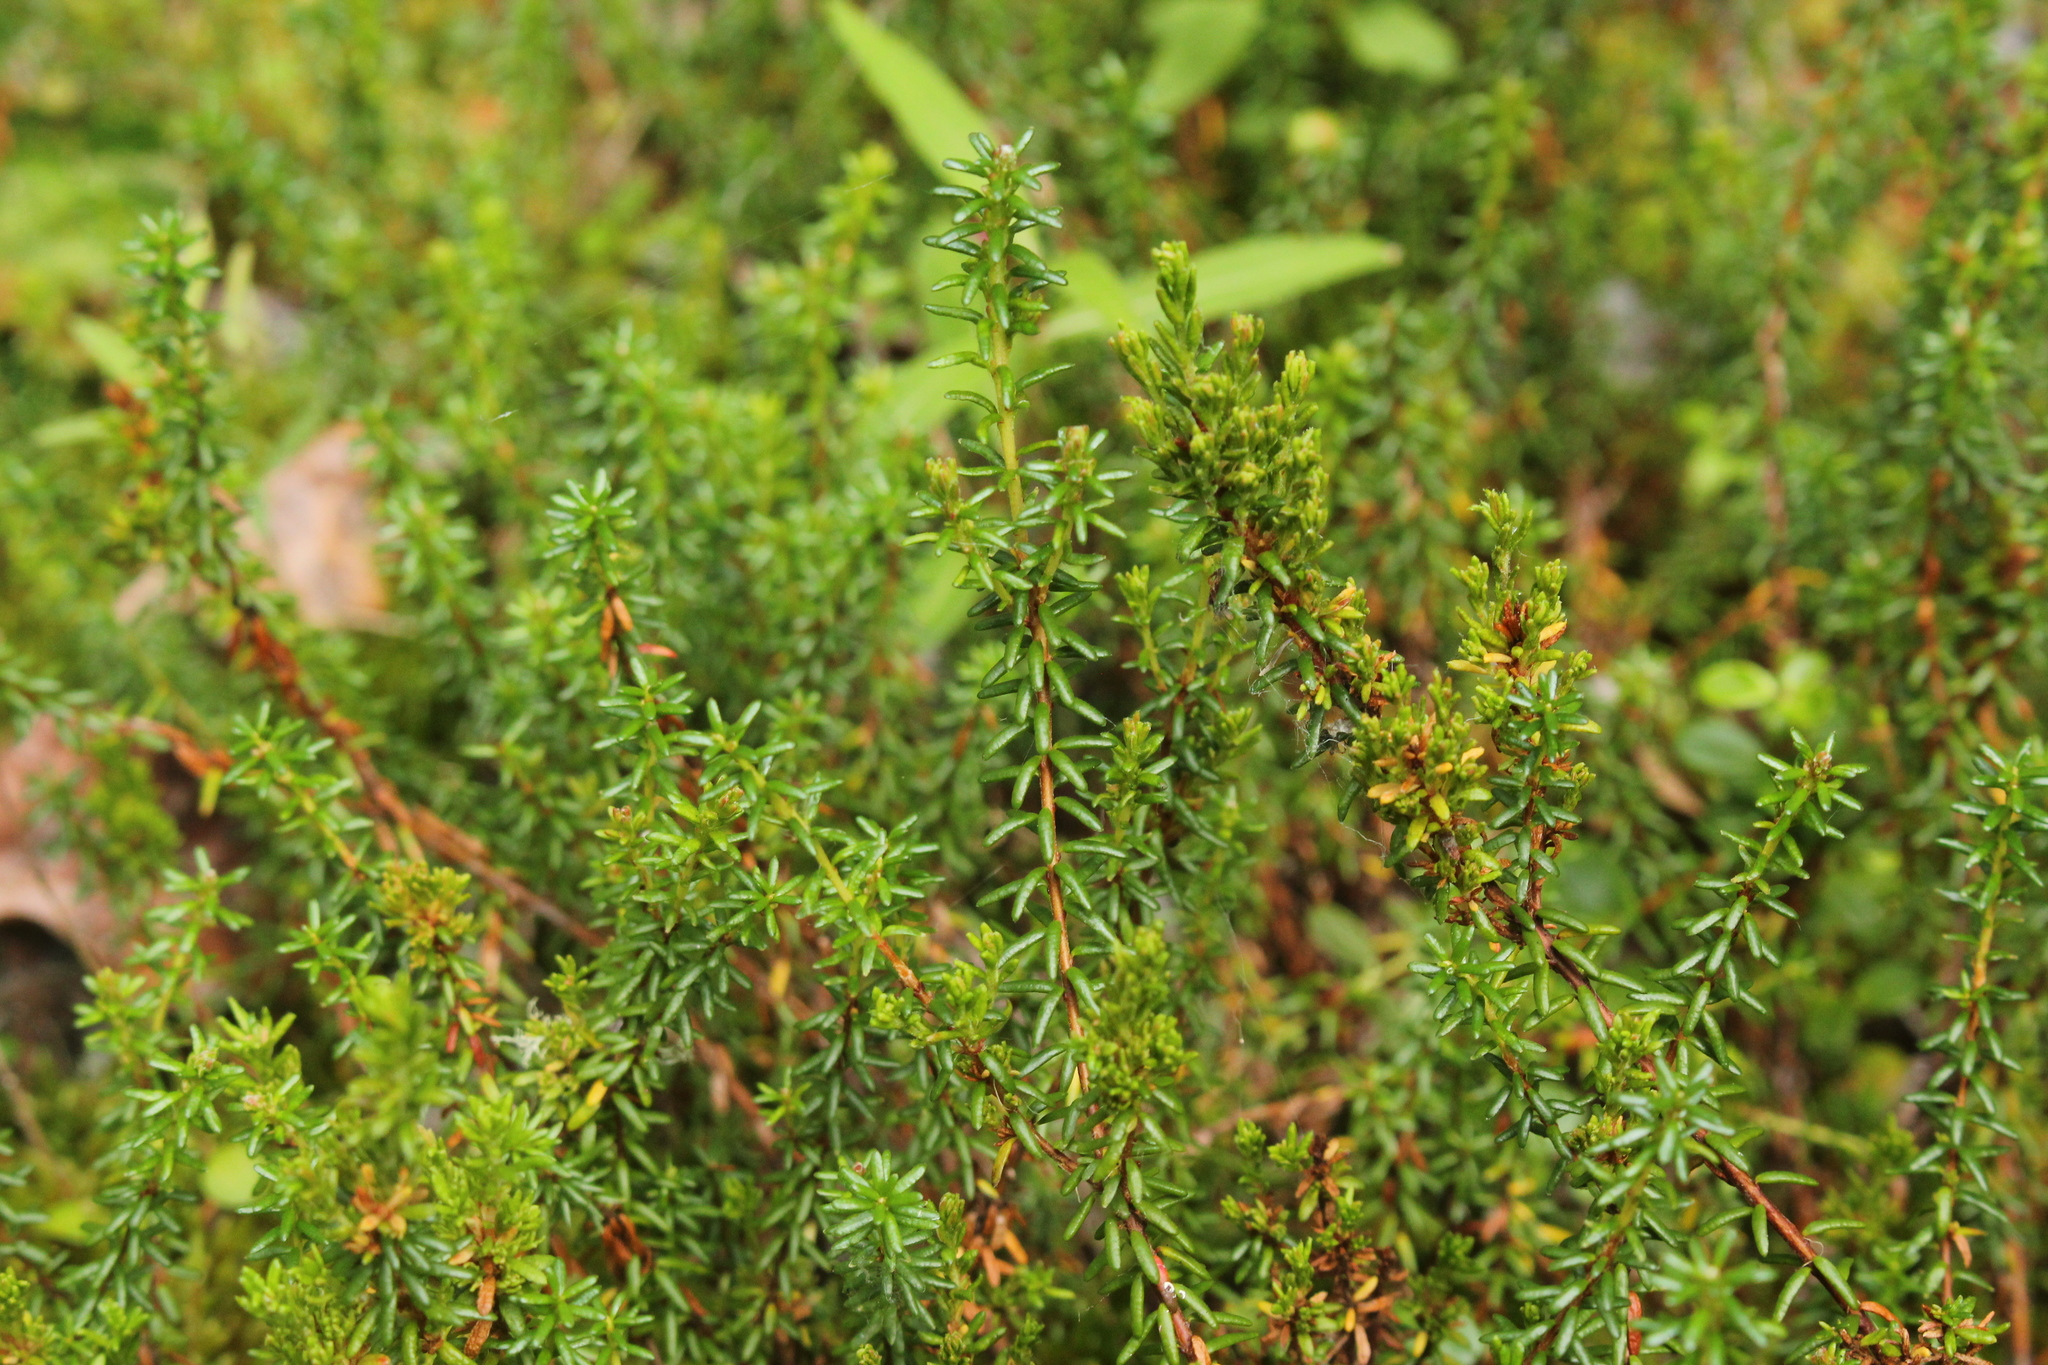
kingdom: Plantae
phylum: Tracheophyta
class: Magnoliopsida
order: Ericales
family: Ericaceae
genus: Empetrum
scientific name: Empetrum nigrum
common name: Black crowberry
